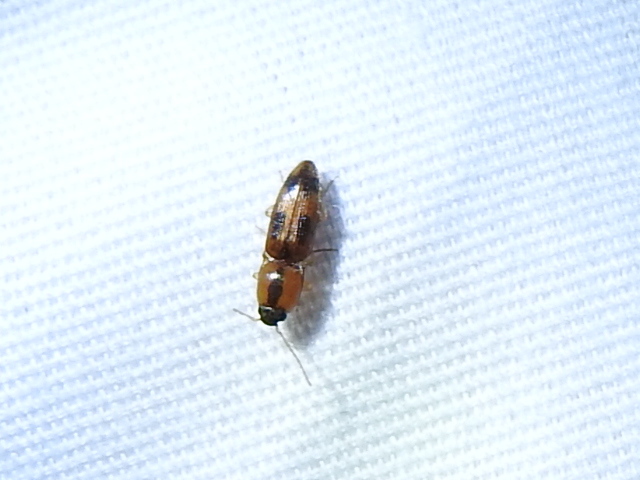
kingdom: Animalia
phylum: Arthropoda
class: Insecta
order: Coleoptera
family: Elateridae
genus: Aeolus
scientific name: Aeolus mellillus
